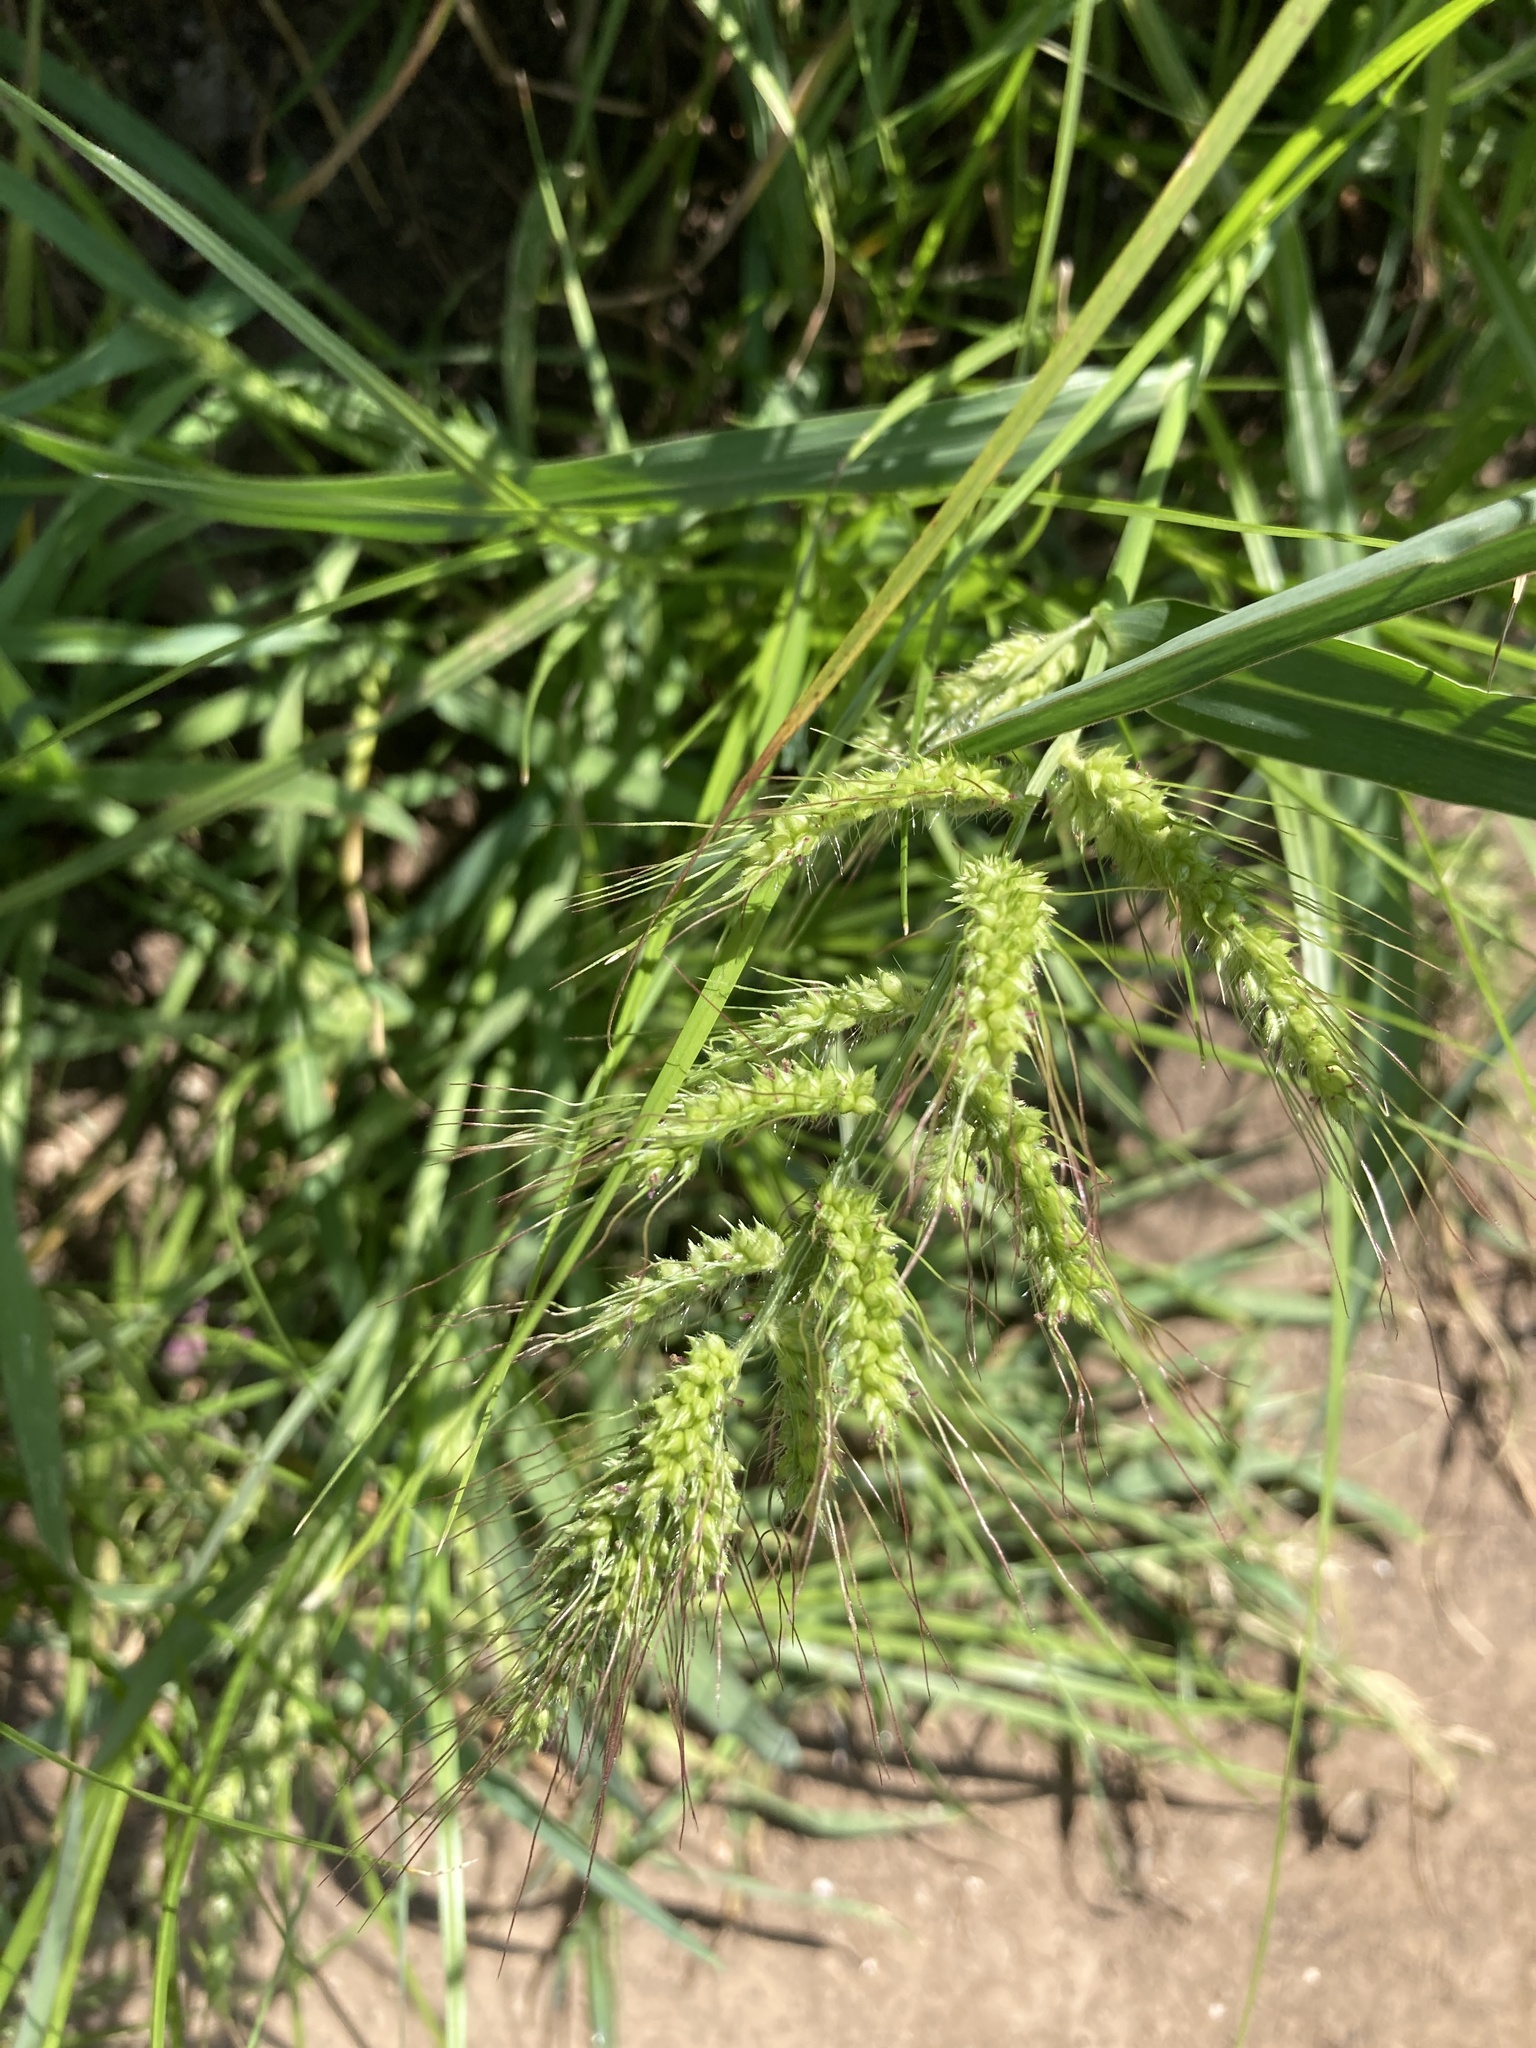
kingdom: Plantae
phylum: Tracheophyta
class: Liliopsida
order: Poales
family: Poaceae
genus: Echinochloa
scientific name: Echinochloa crus-galli
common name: Cockspur
